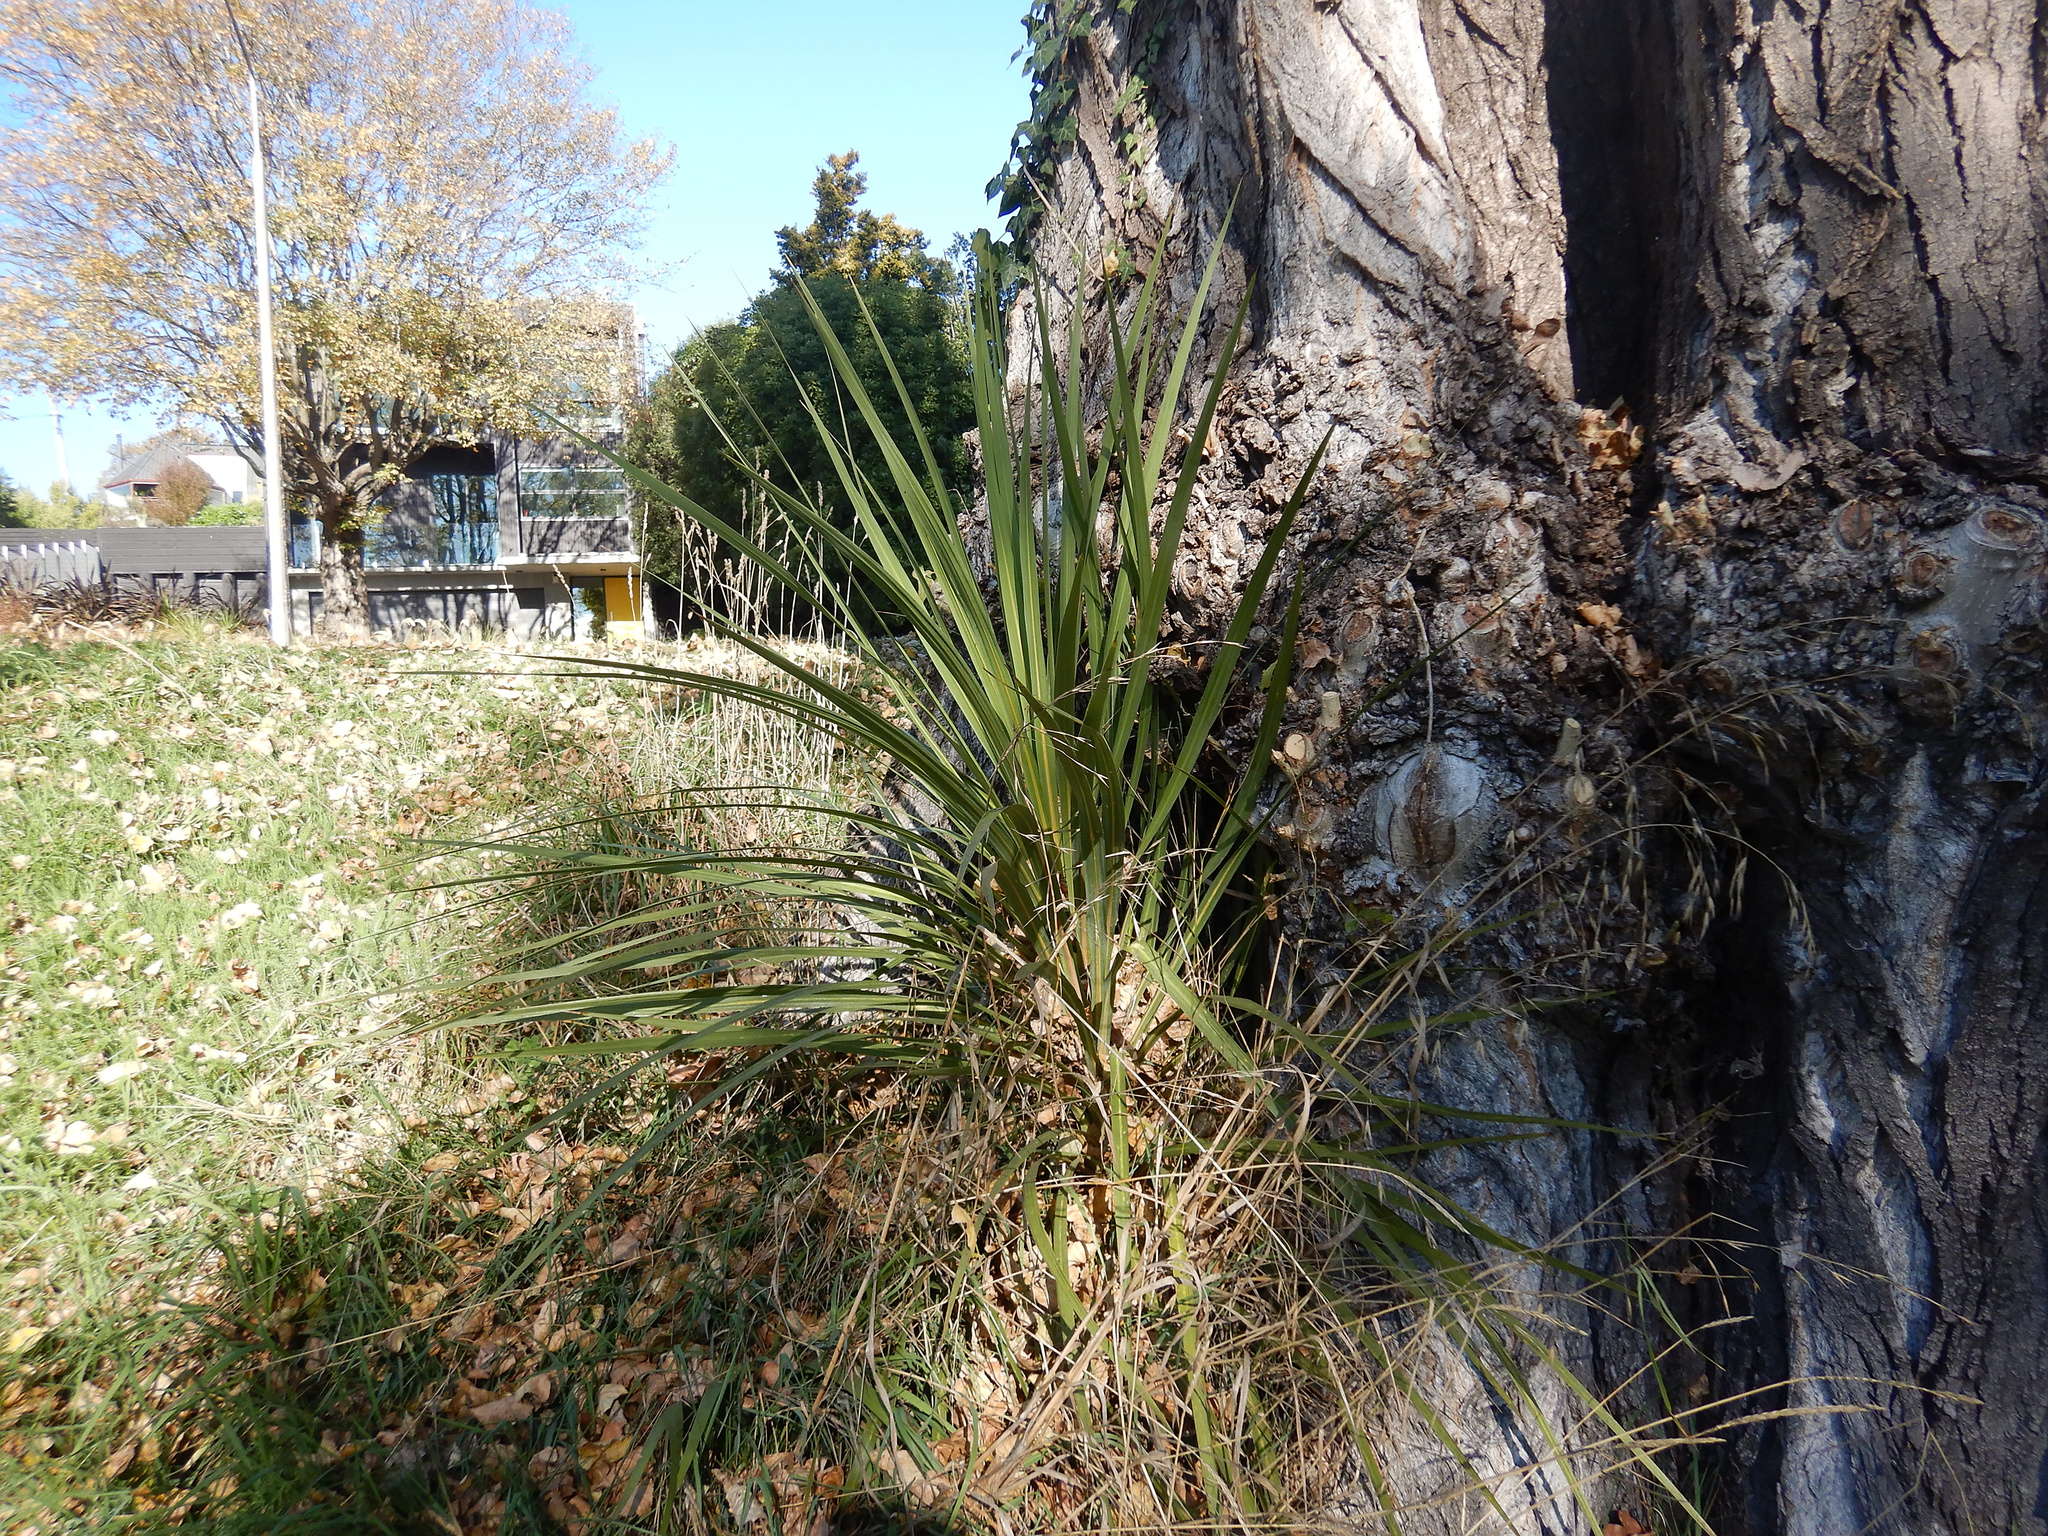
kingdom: Plantae
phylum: Tracheophyta
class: Liliopsida
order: Asparagales
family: Asparagaceae
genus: Cordyline
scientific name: Cordyline australis
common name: Cabbage-palm
